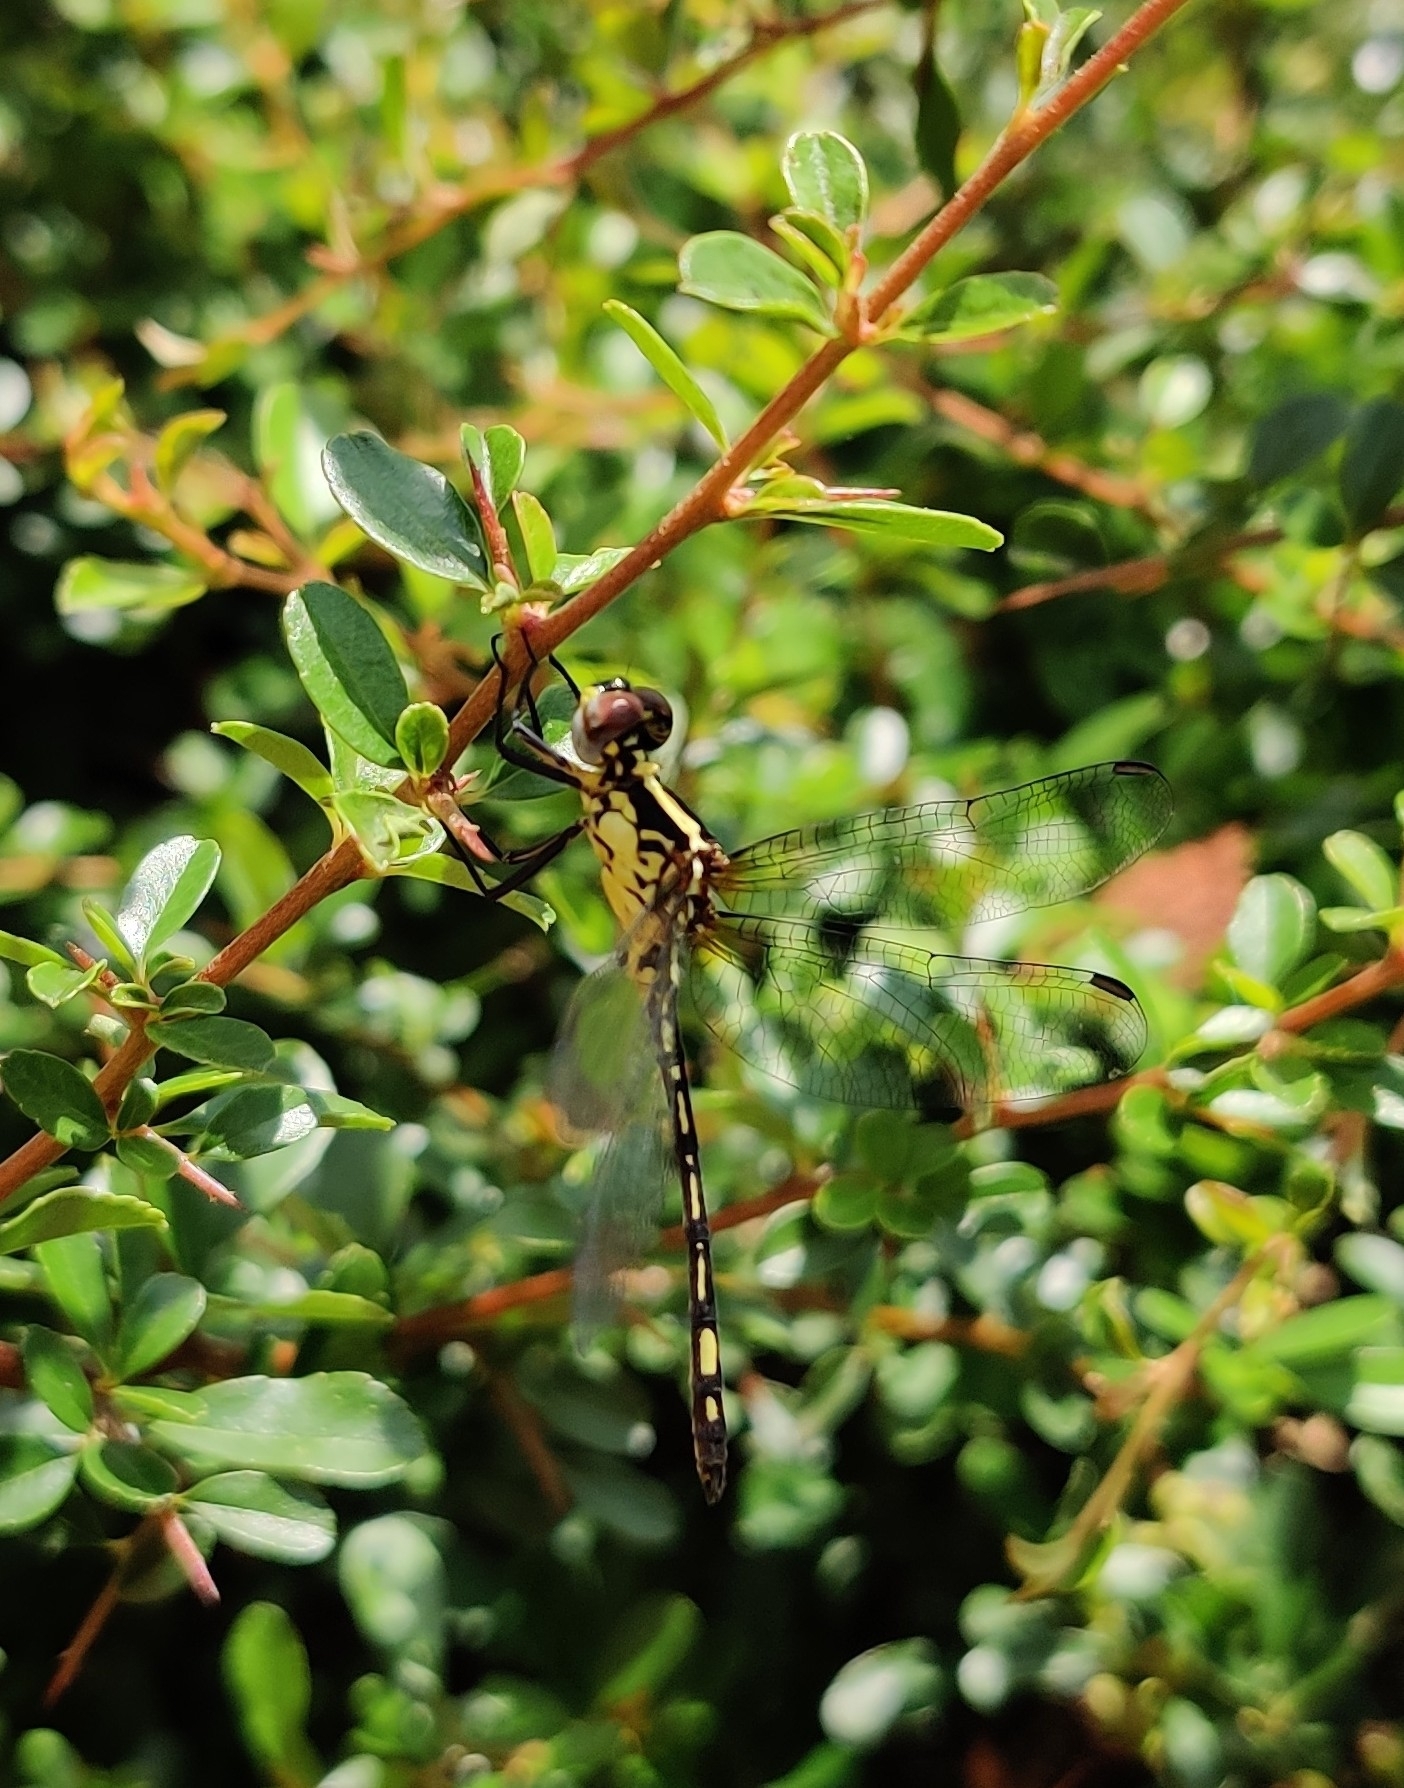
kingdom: Animalia
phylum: Arthropoda
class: Insecta
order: Odonata
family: Libellulidae
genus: Neodythemis
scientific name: Neodythemis hildebrandti
